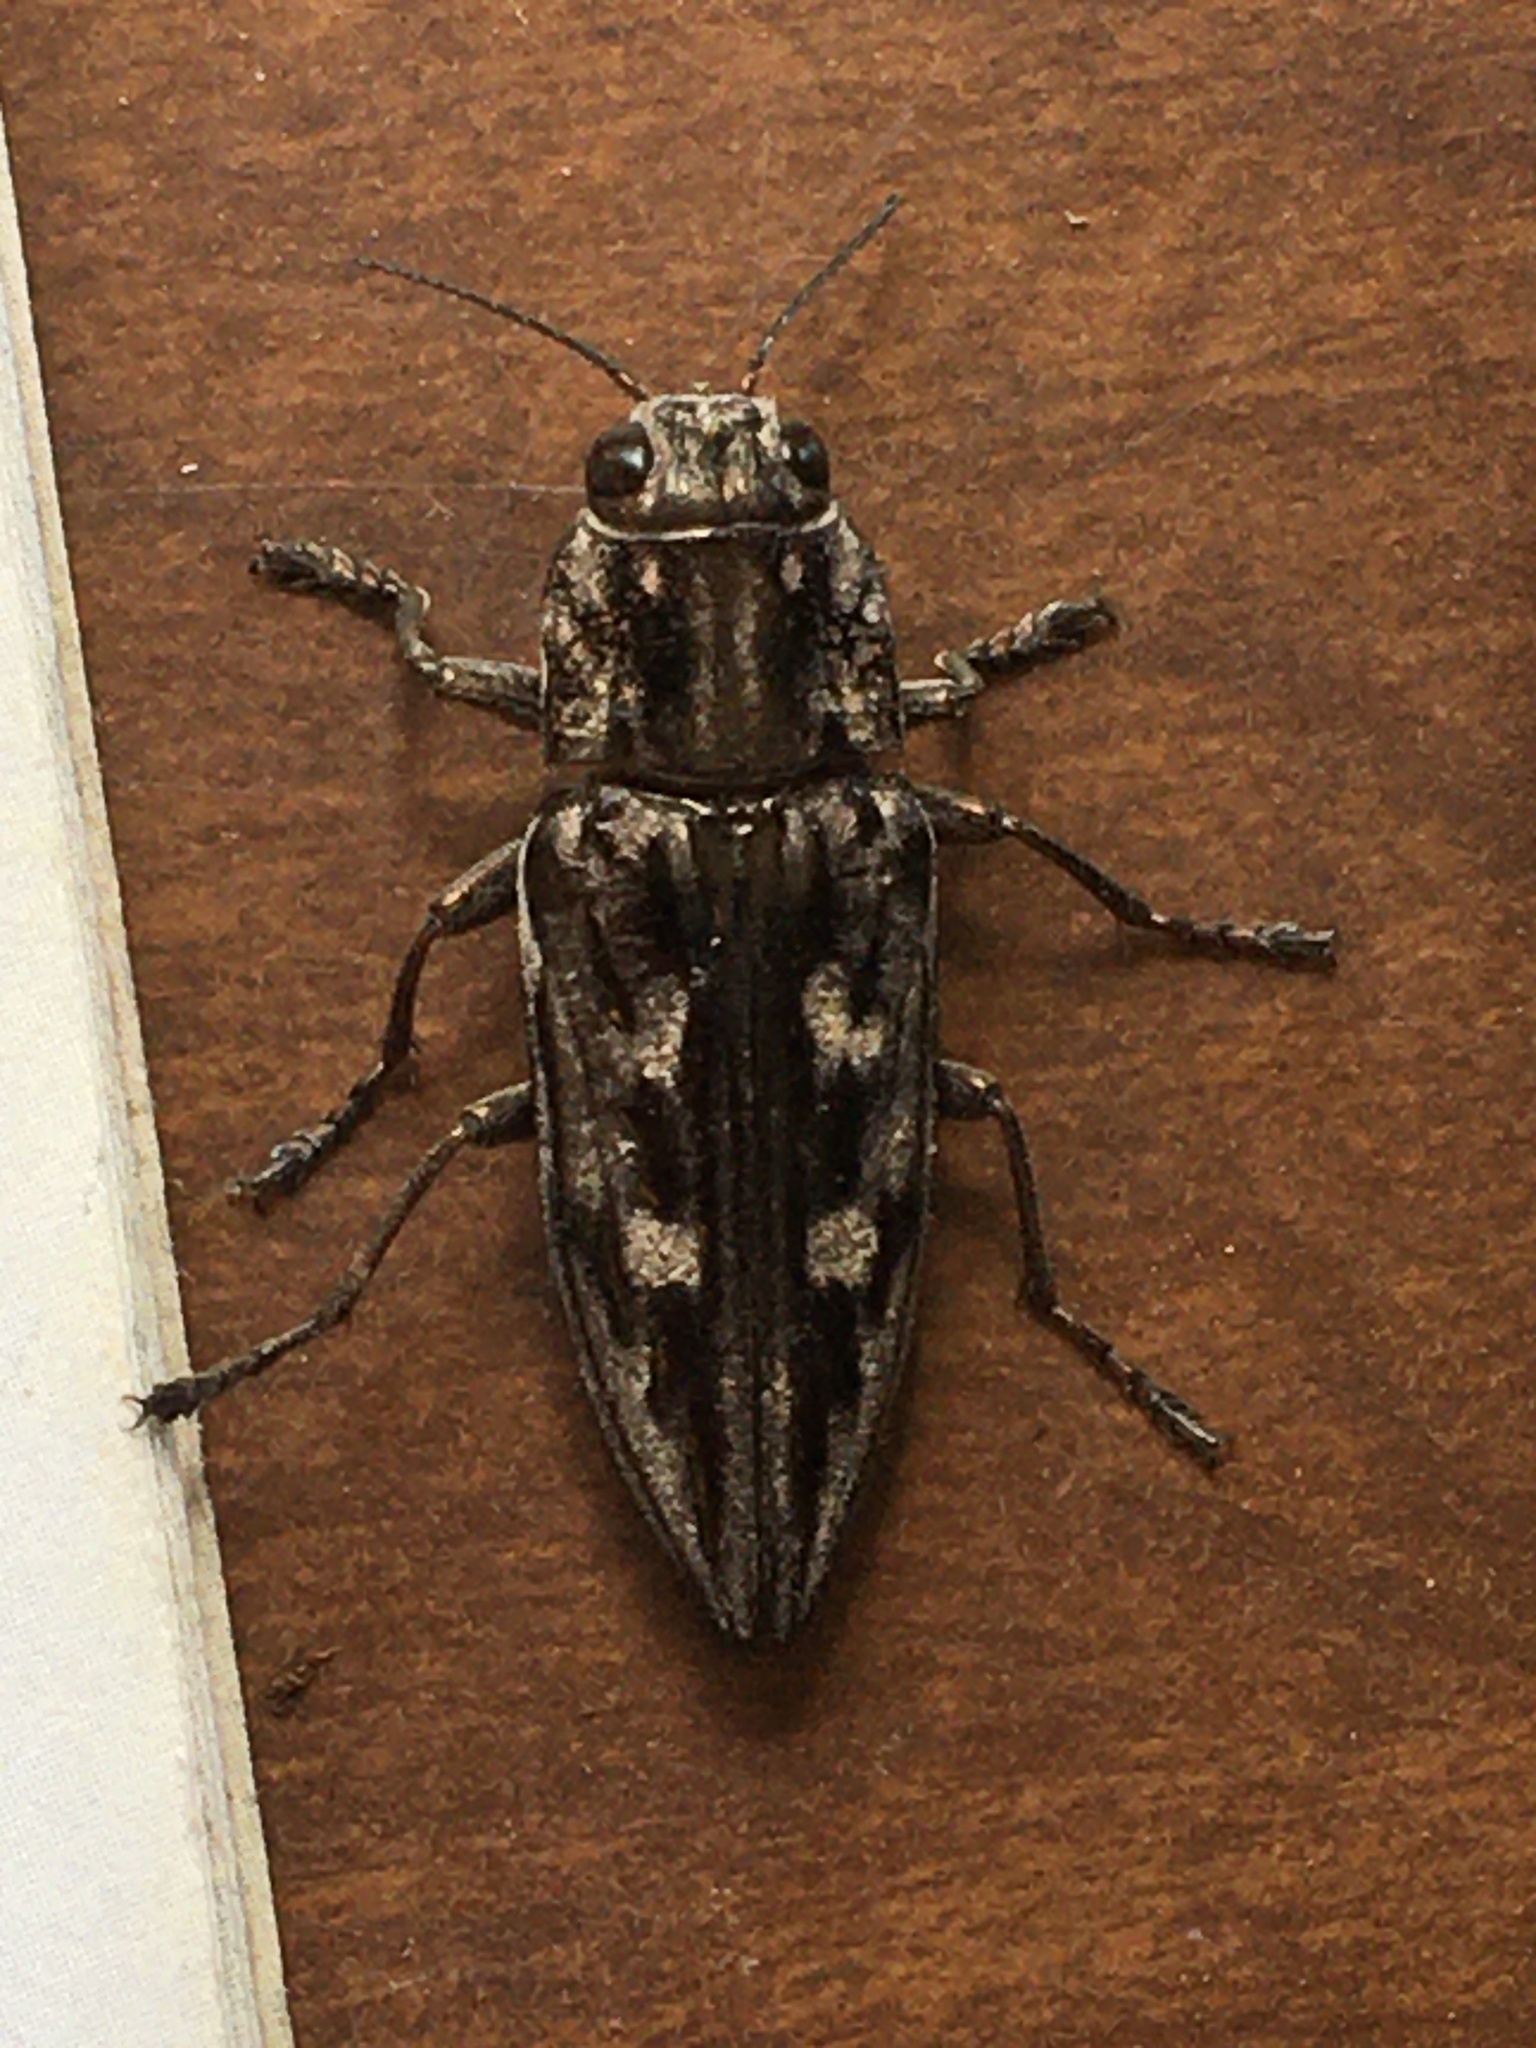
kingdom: Animalia
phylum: Arthropoda
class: Insecta
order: Coleoptera
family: Buprestidae
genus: Chalcophora
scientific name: Chalcophora virginiensis
